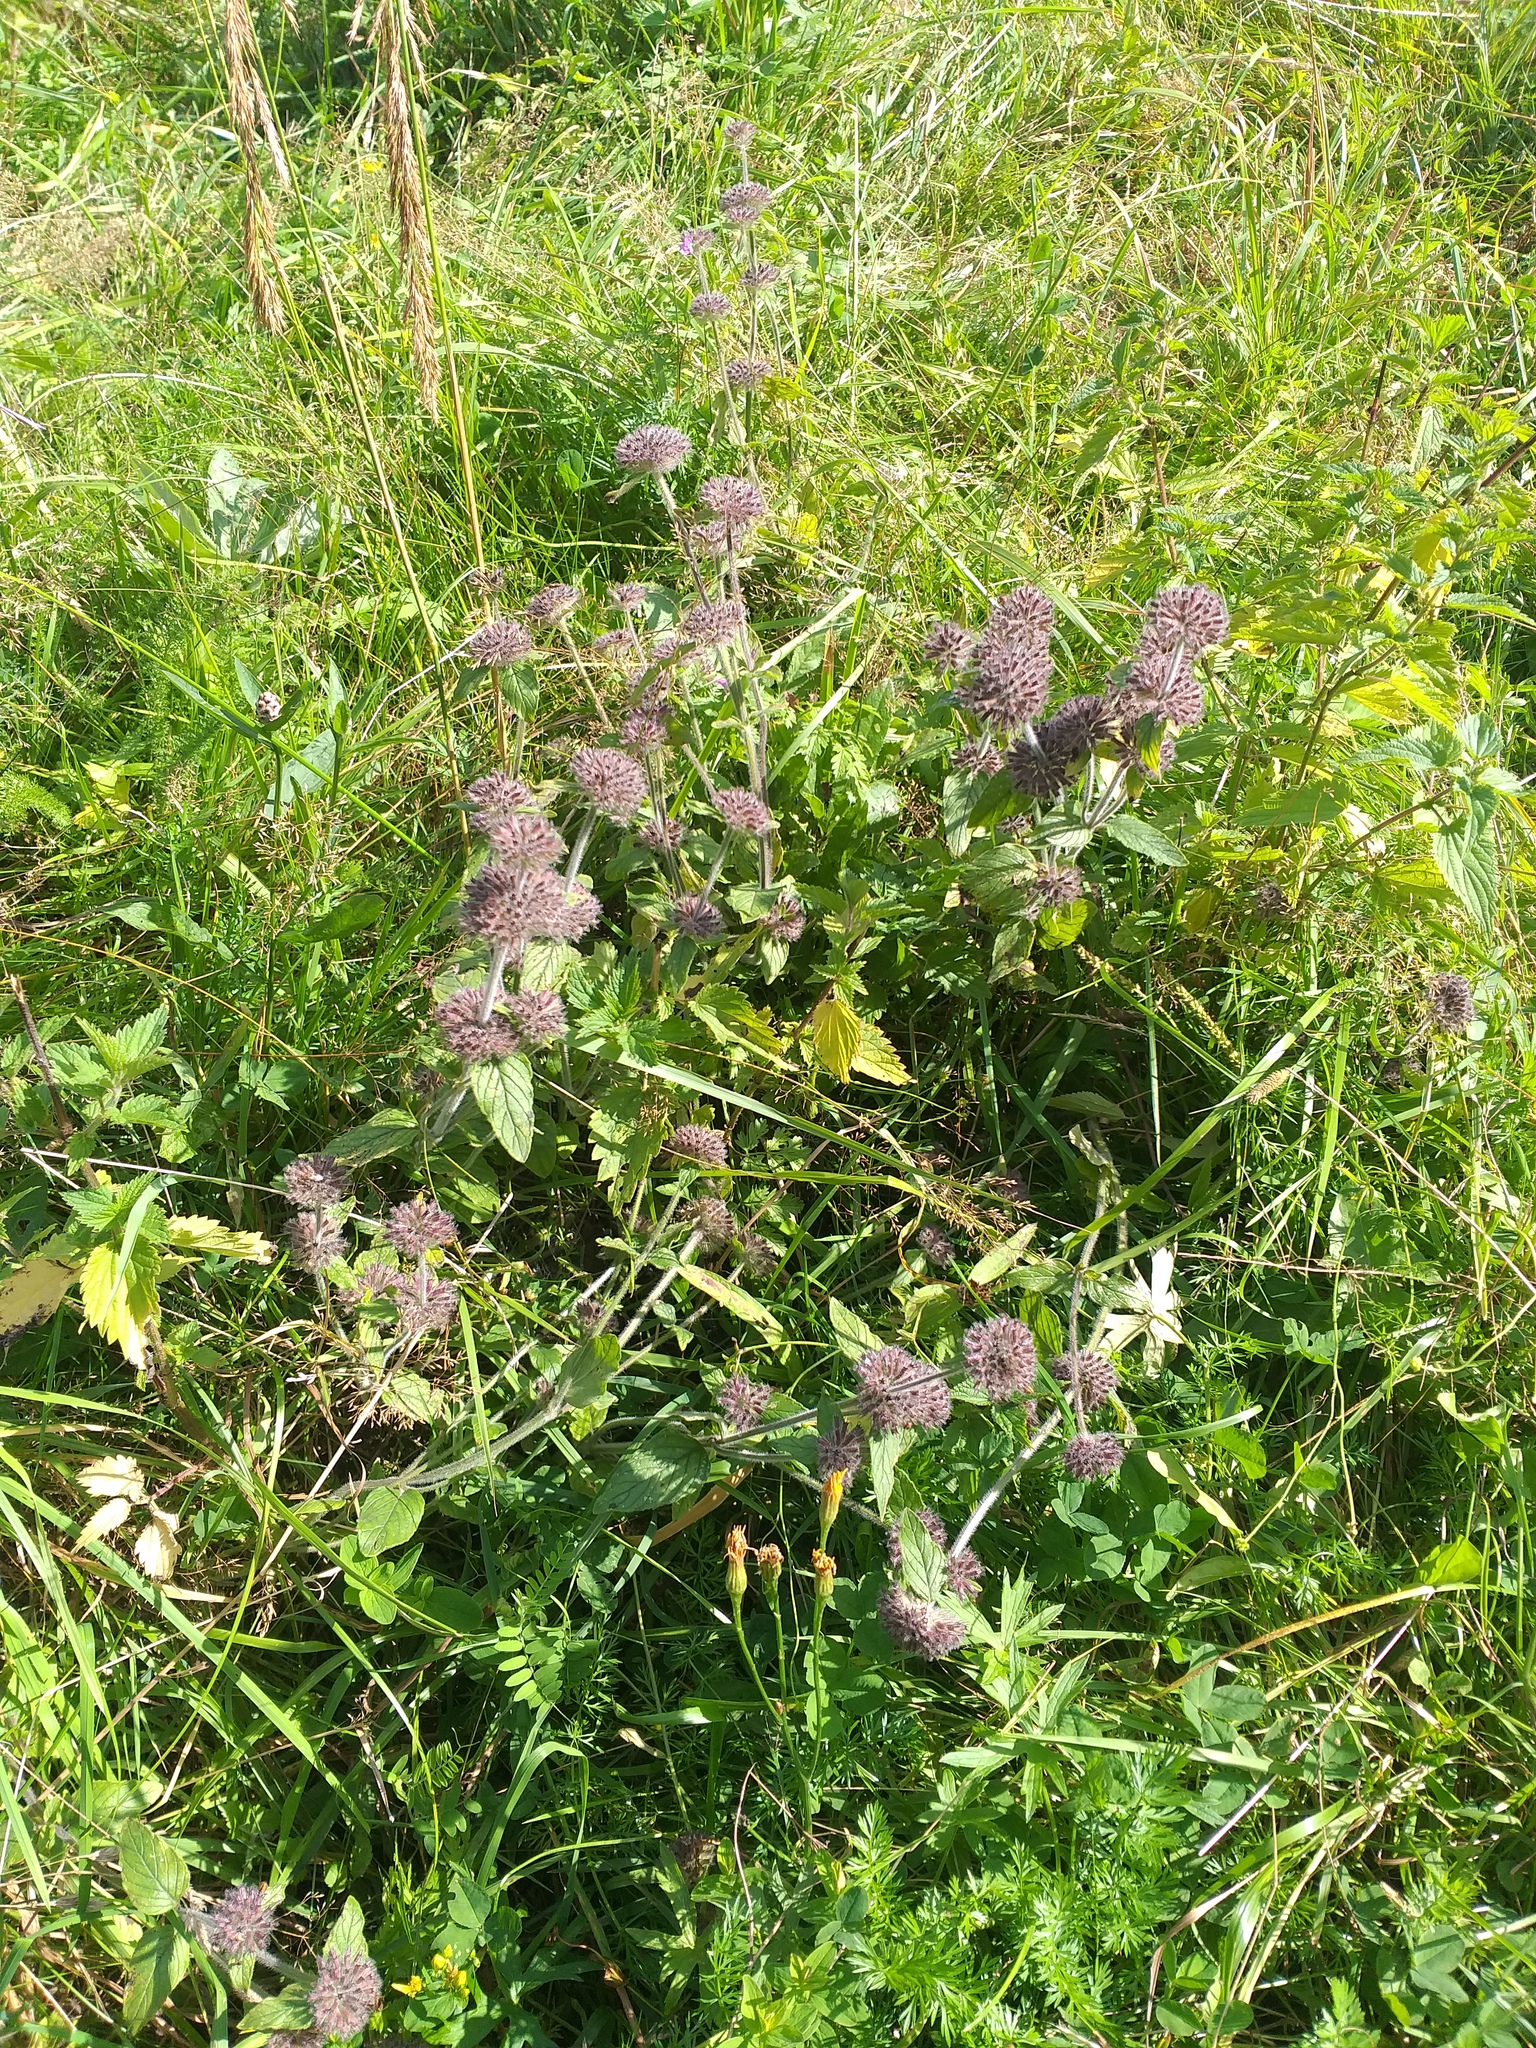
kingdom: Plantae
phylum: Tracheophyta
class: Magnoliopsida
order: Lamiales
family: Lamiaceae
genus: Clinopodium
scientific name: Clinopodium vulgare
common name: Wild basil
